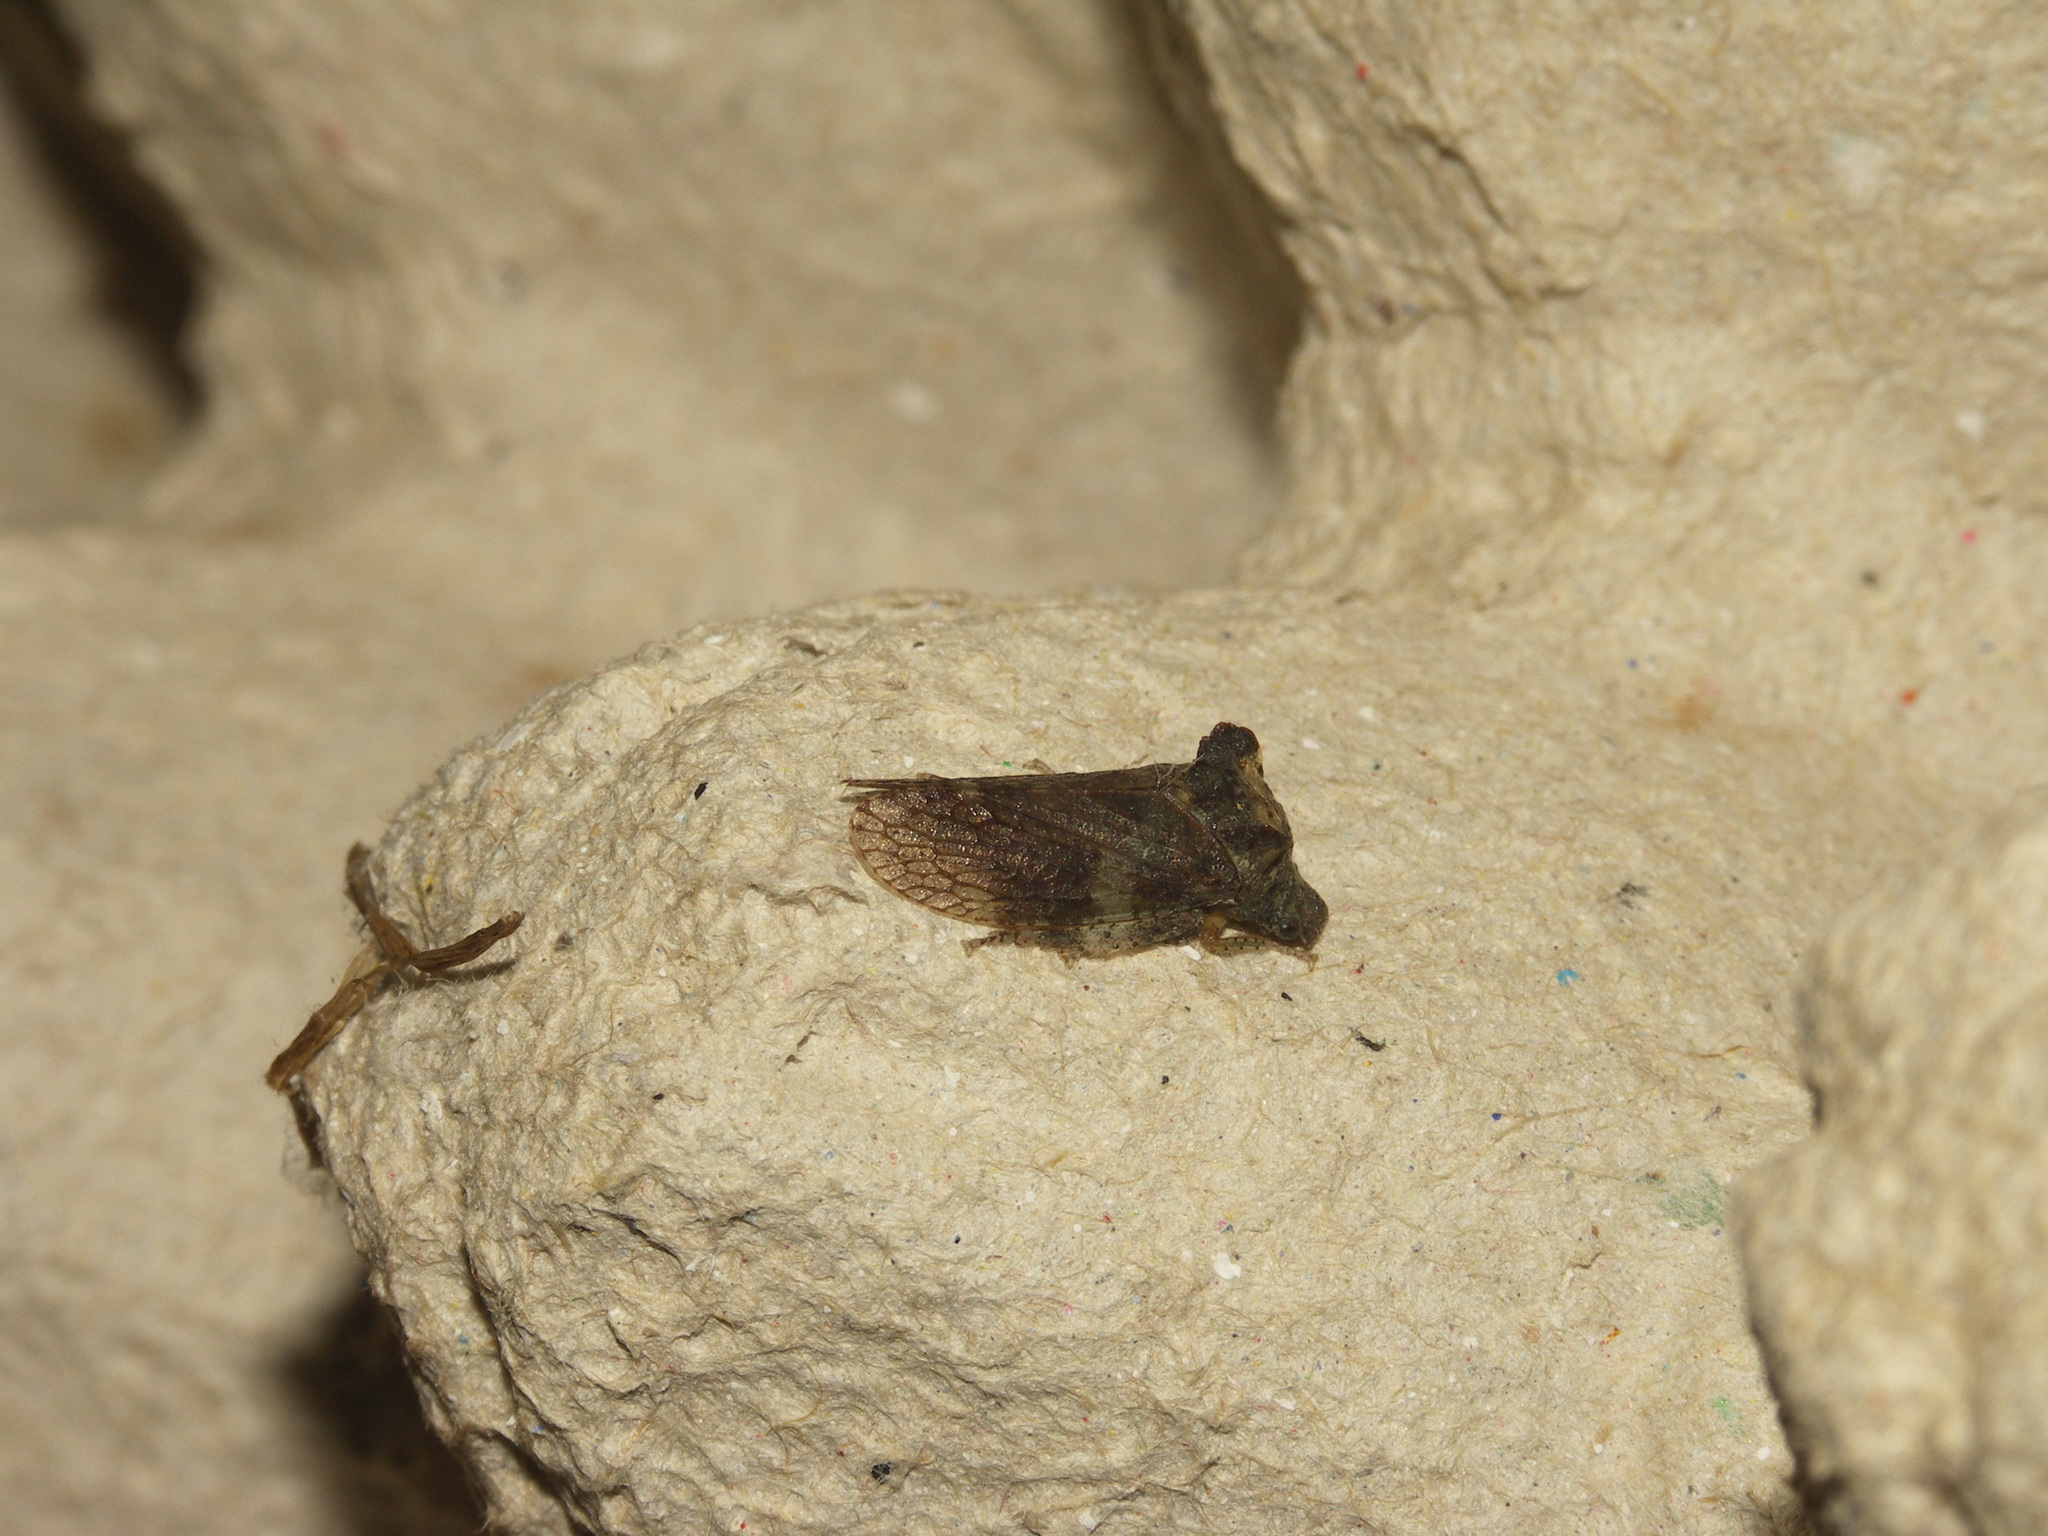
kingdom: Animalia
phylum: Arthropoda
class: Insecta
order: Hemiptera
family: Cicadellidae
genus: Ledra
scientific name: Ledra aurita
